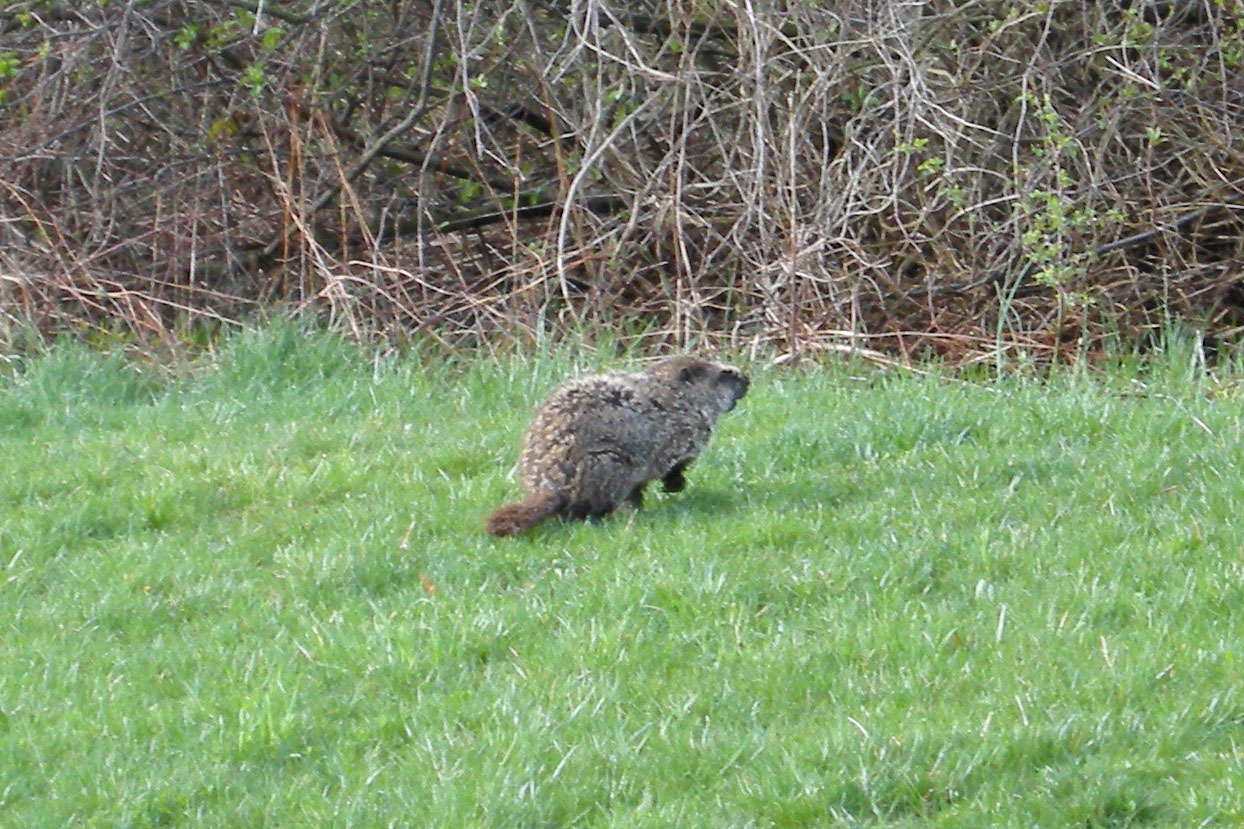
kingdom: Animalia
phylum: Chordata
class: Mammalia
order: Rodentia
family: Sciuridae
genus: Marmota
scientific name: Marmota monax
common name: Groundhog
